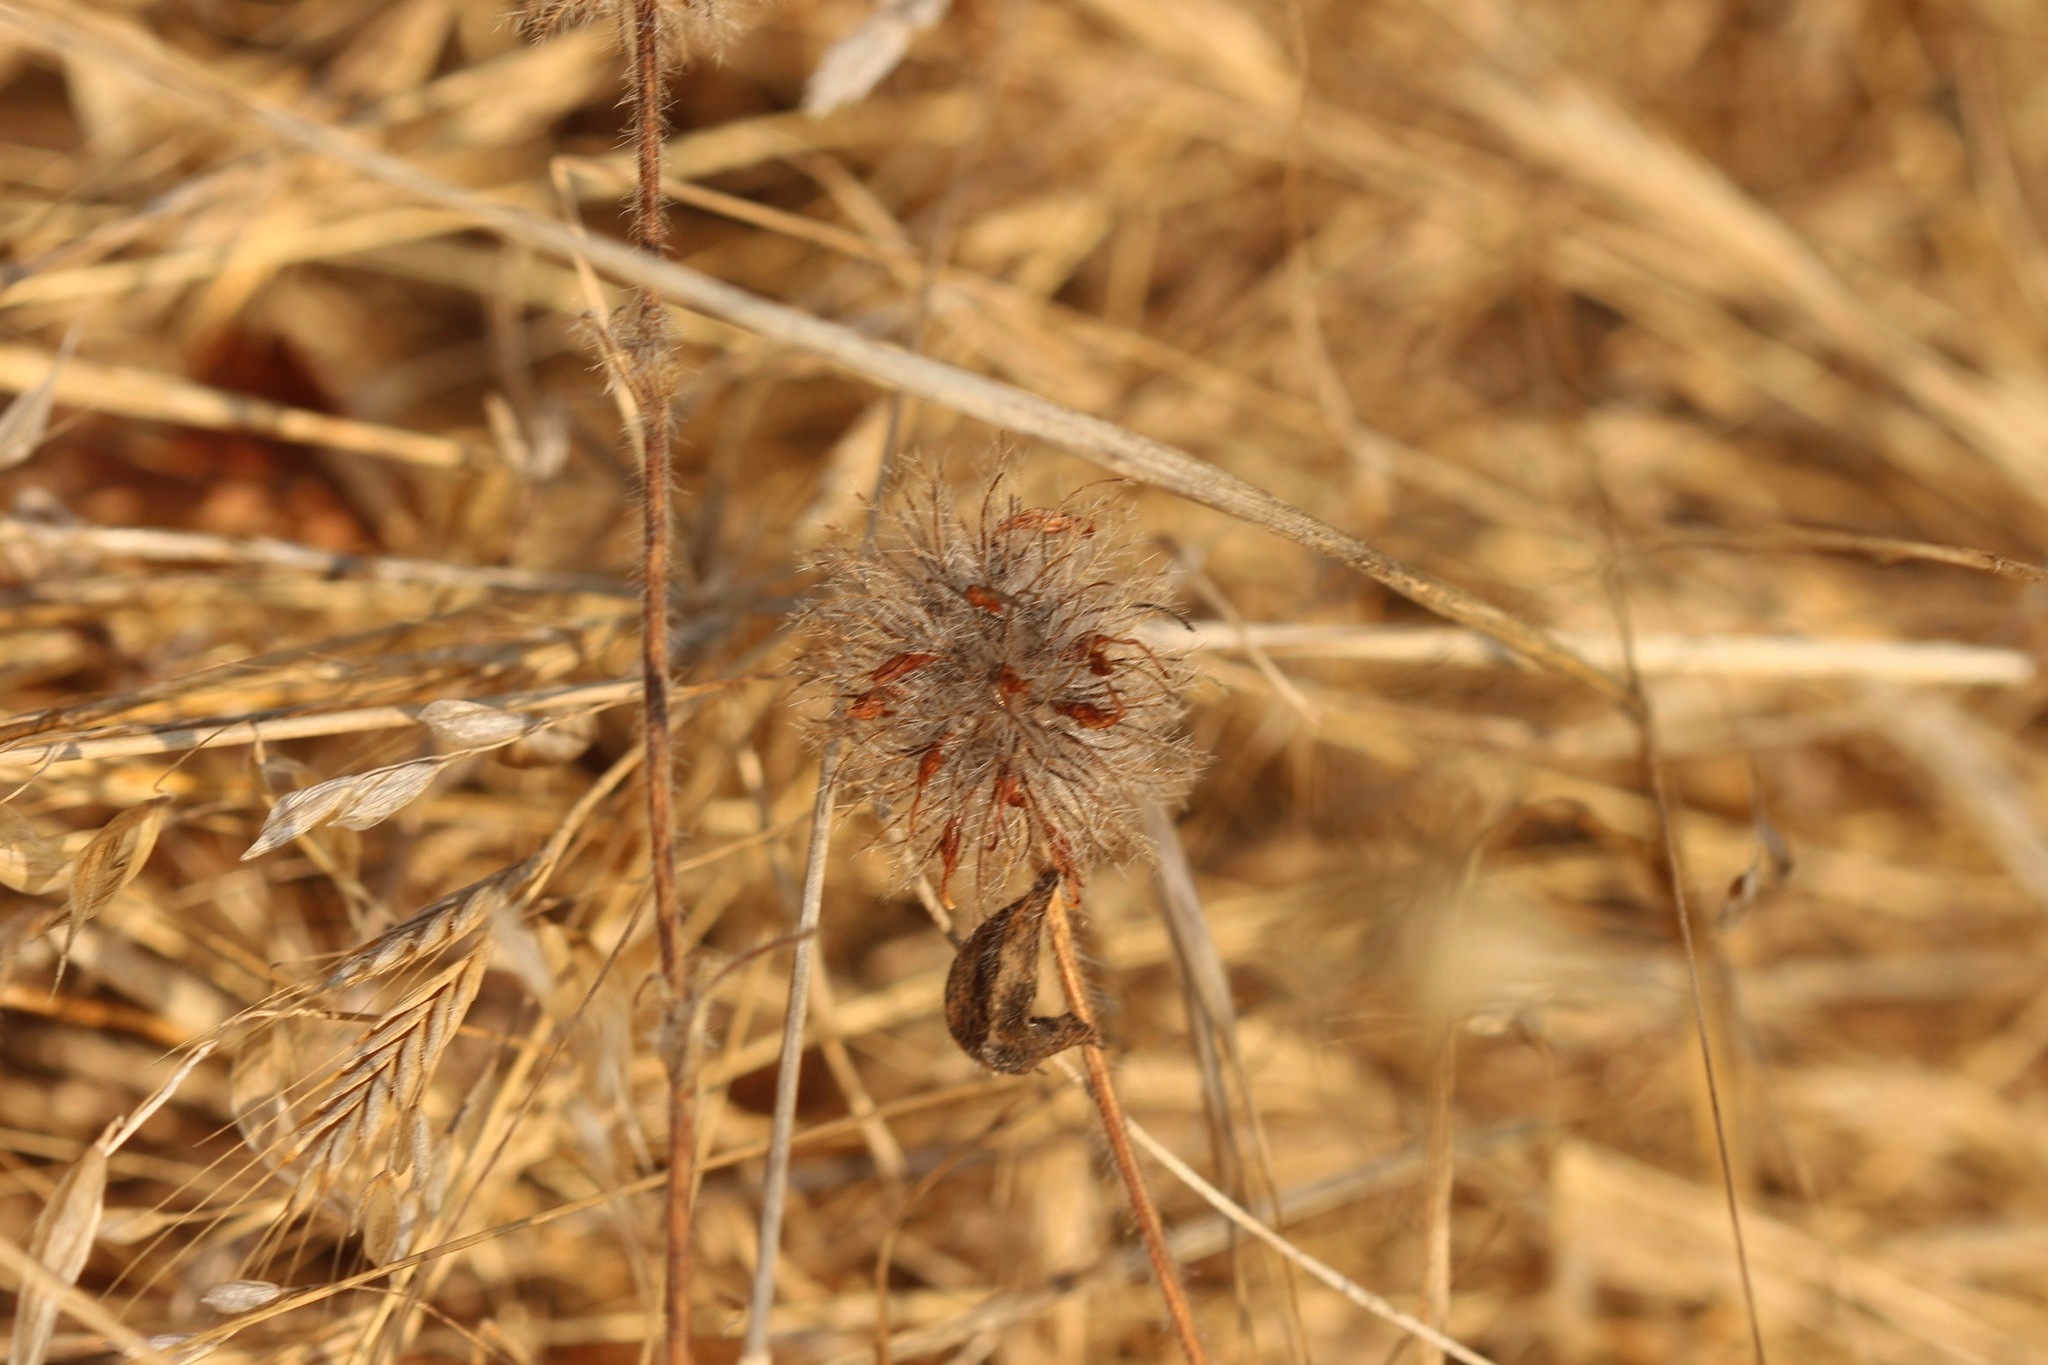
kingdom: Plantae
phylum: Tracheophyta
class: Magnoliopsida
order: Fabales
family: Fabaceae
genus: Trifolium
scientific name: Trifolium hirtum
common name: Rose clover
